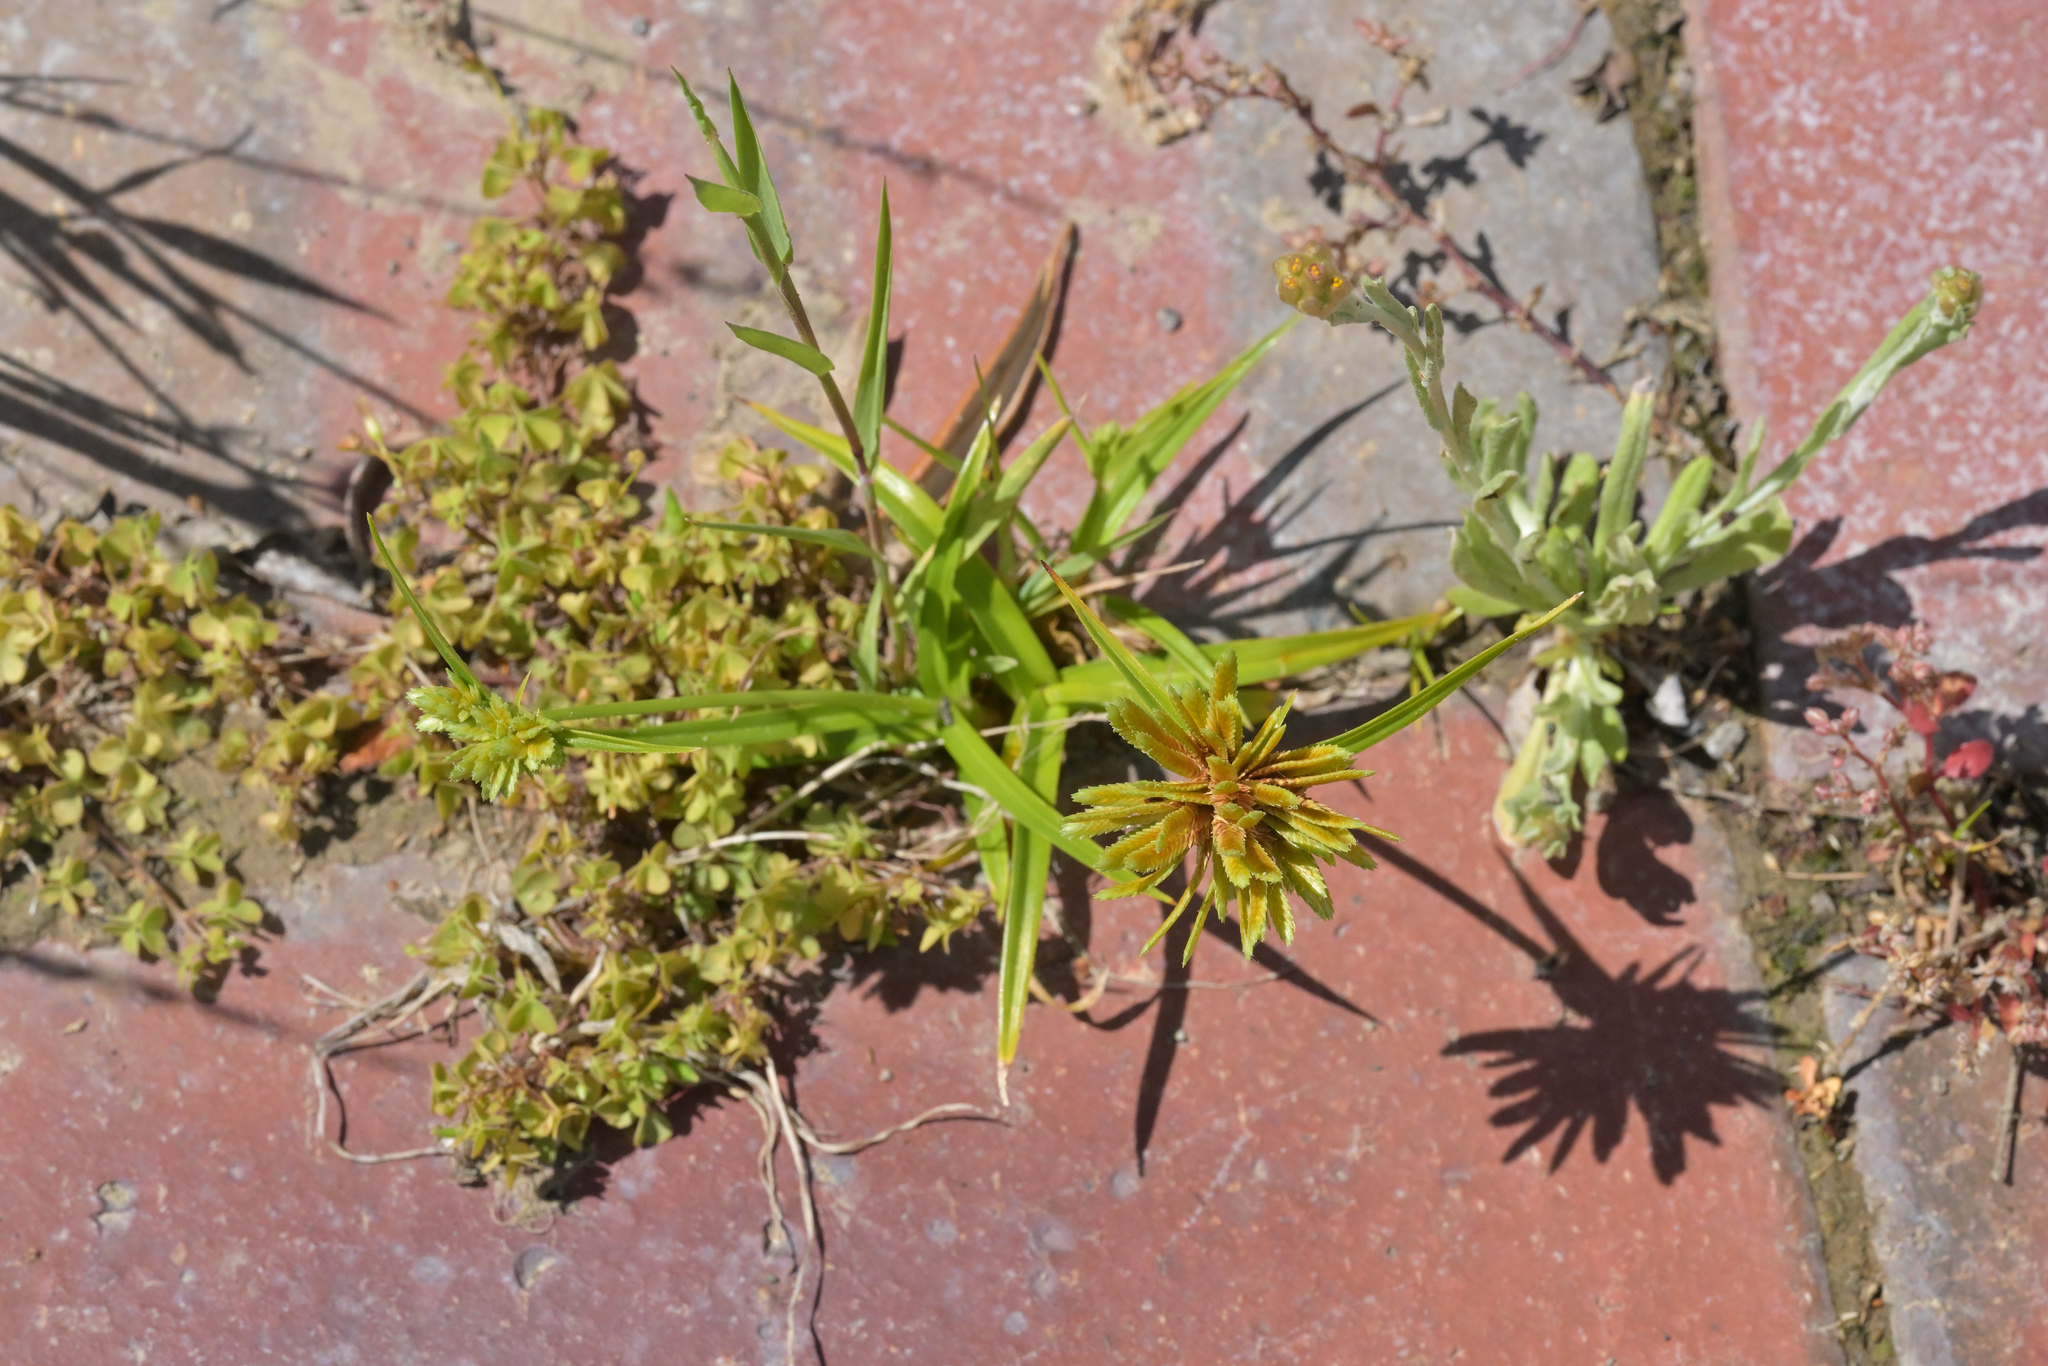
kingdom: Plantae
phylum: Tracheophyta
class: Liliopsida
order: Poales
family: Cyperaceae
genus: Cyperus
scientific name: Cyperus eragrostis
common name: Tall flatsedge
